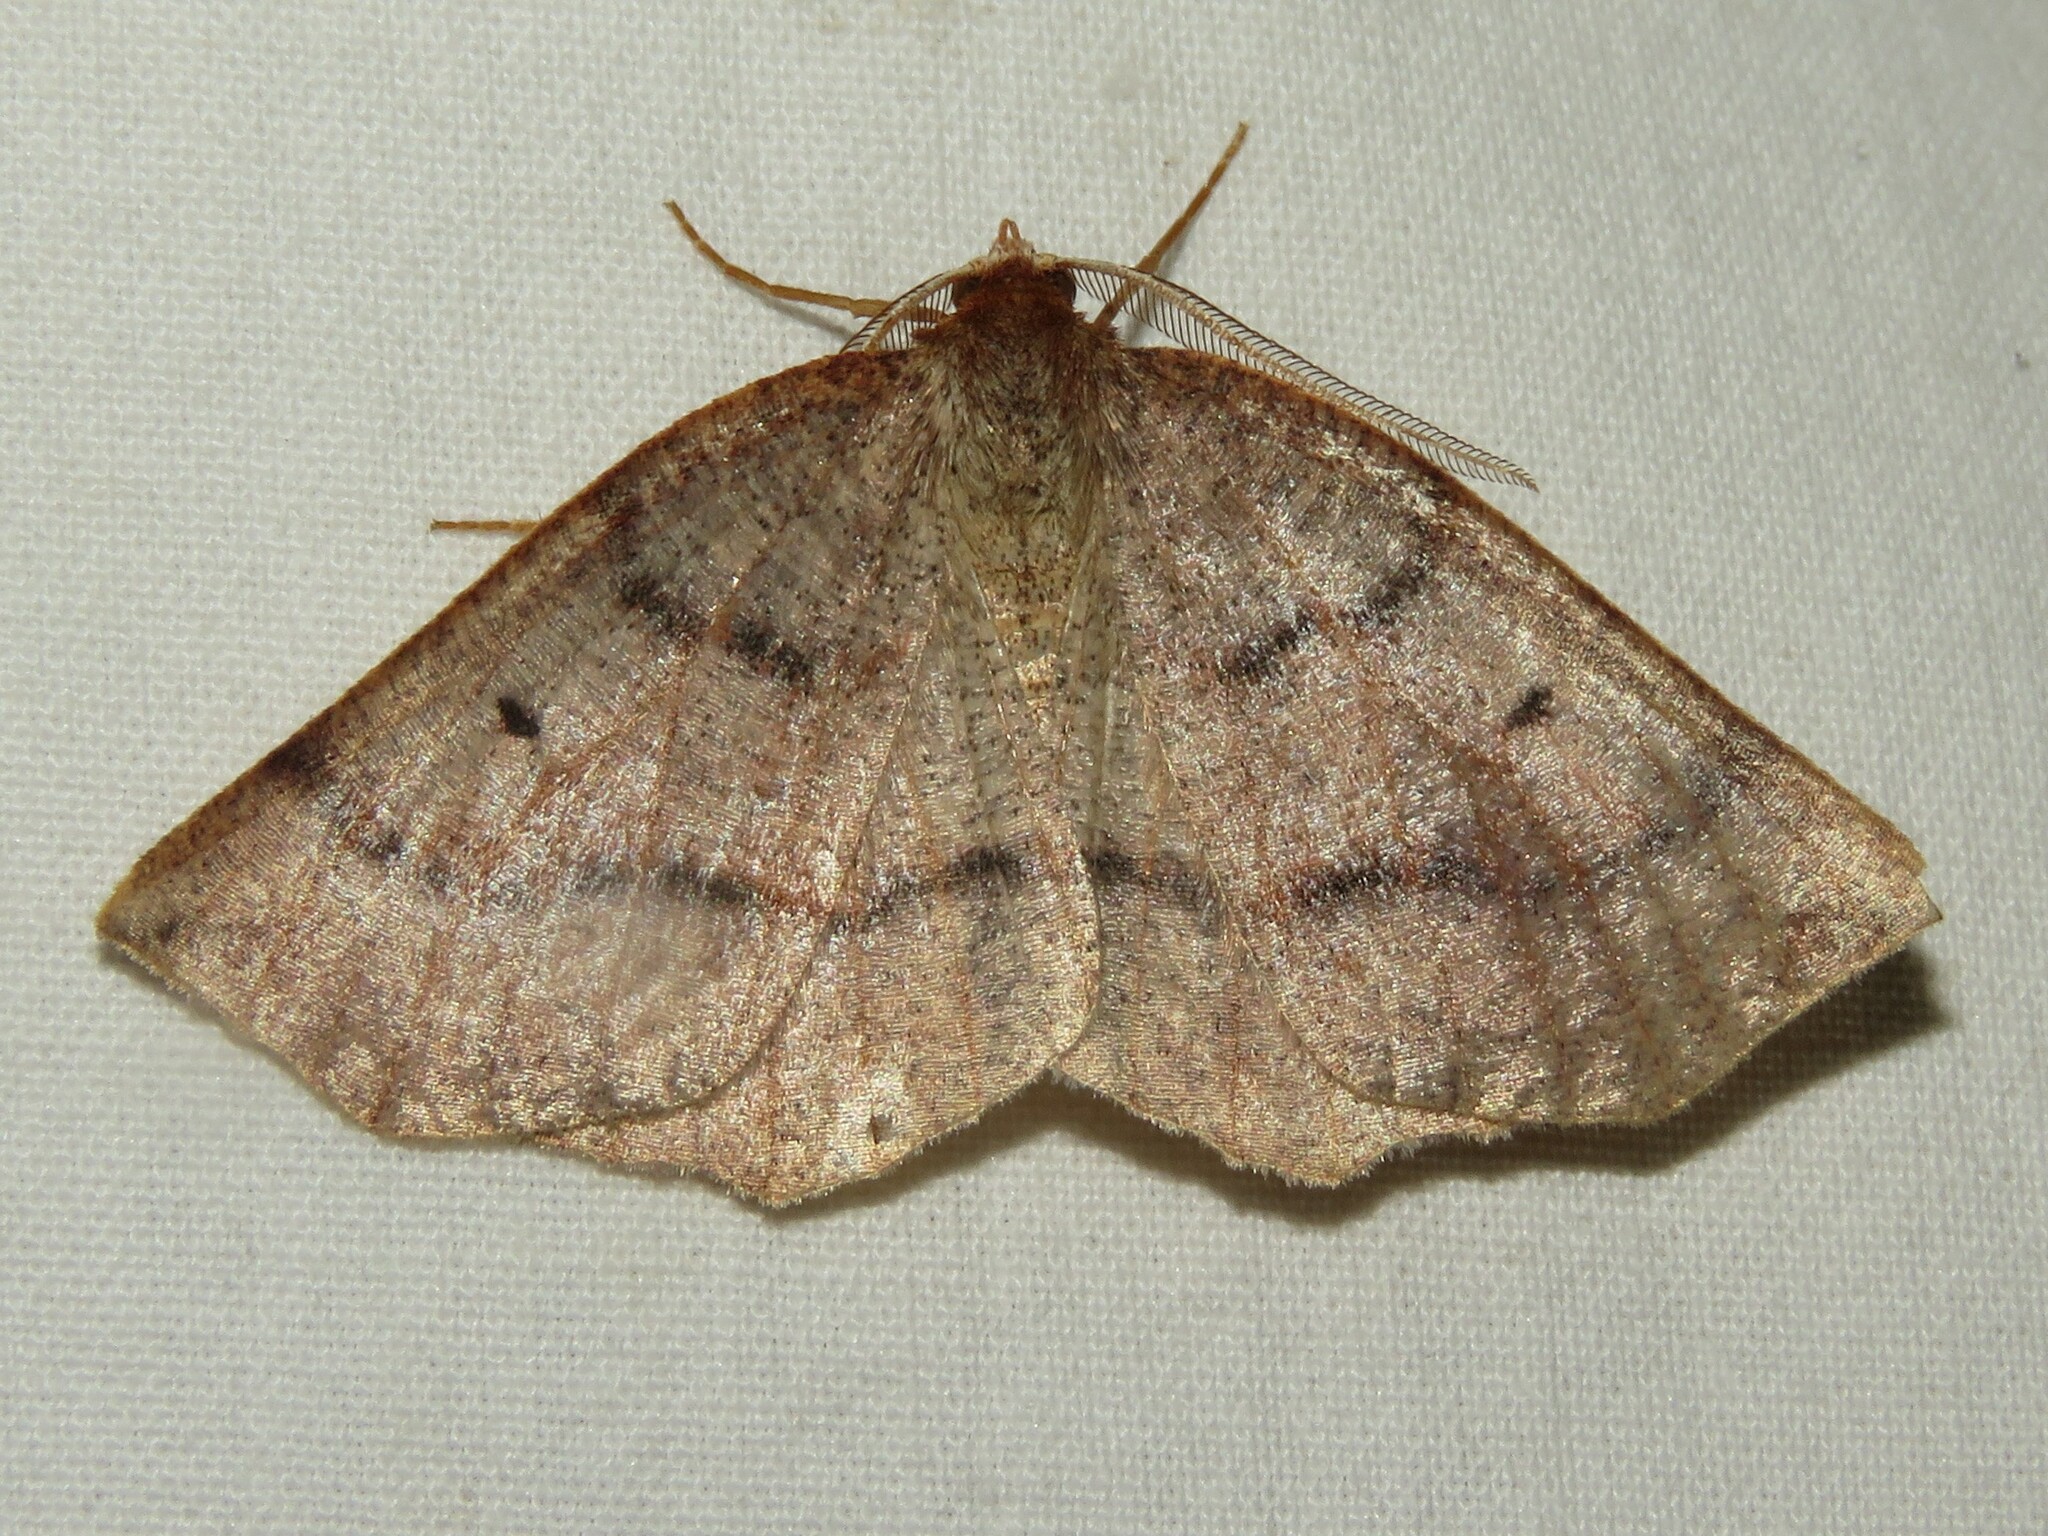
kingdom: Animalia
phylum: Arthropoda
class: Insecta
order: Lepidoptera
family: Geometridae
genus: Metarranthis
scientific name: Metarranthis duaria
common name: Ruddy metarranthis moth
